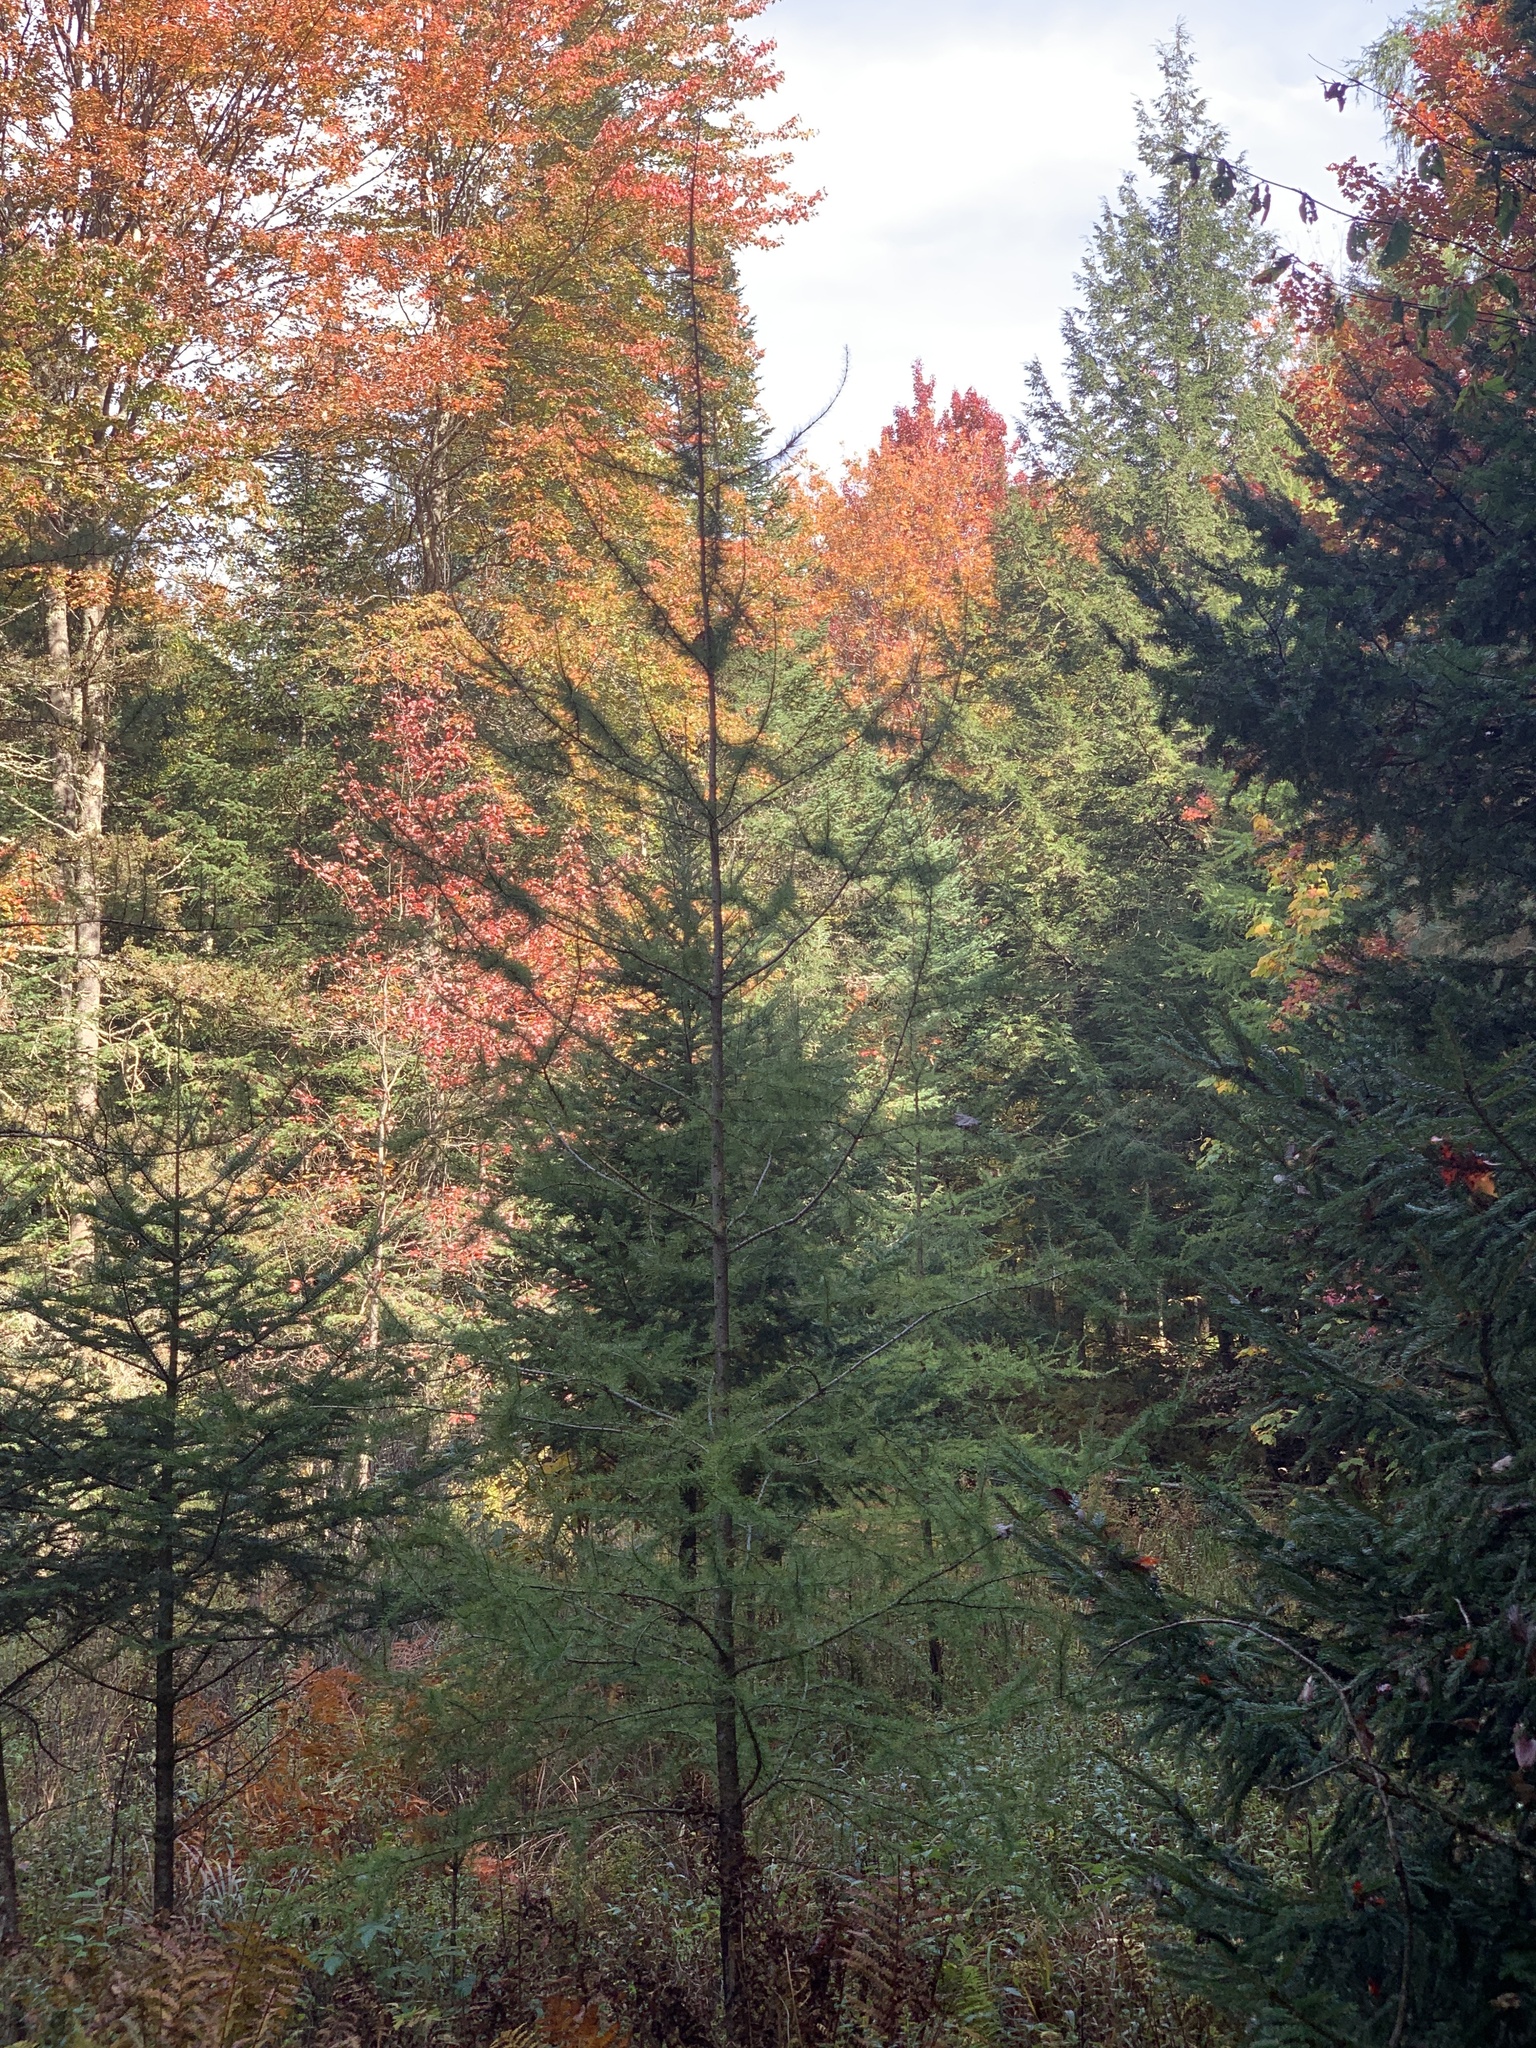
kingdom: Plantae
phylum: Tracheophyta
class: Pinopsida
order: Pinales
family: Pinaceae
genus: Larix
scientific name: Larix laricina
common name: American larch
